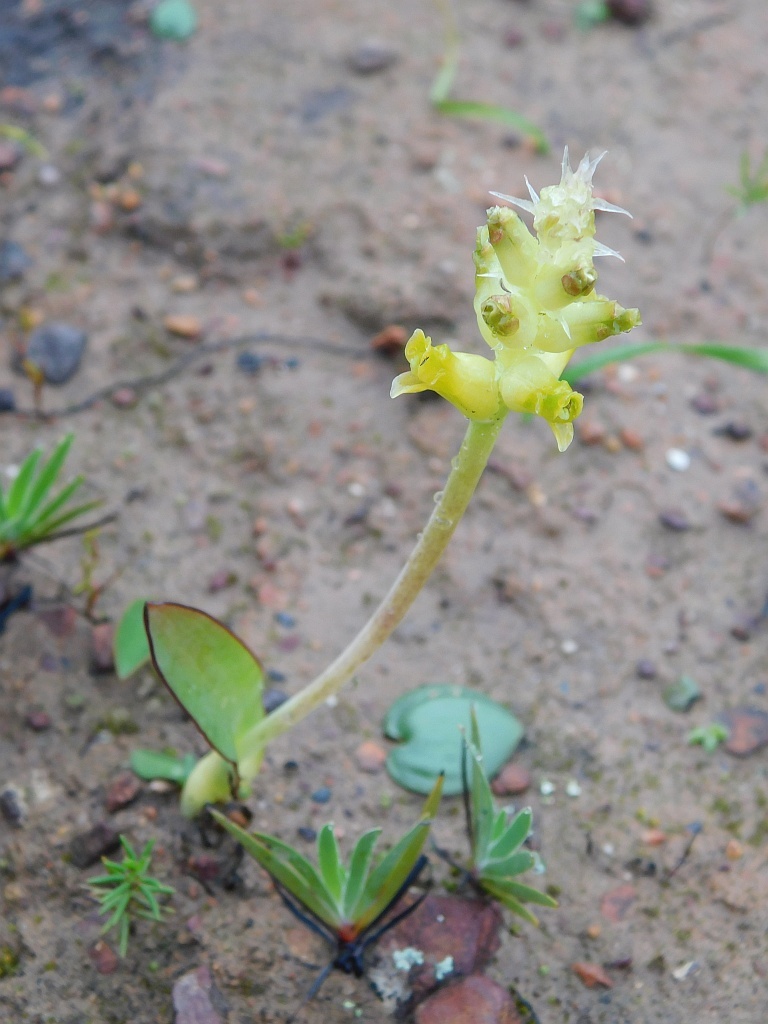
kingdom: Plantae
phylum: Tracheophyta
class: Liliopsida
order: Asparagales
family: Asparagaceae
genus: Lachenalia
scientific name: Lachenalia lutea
